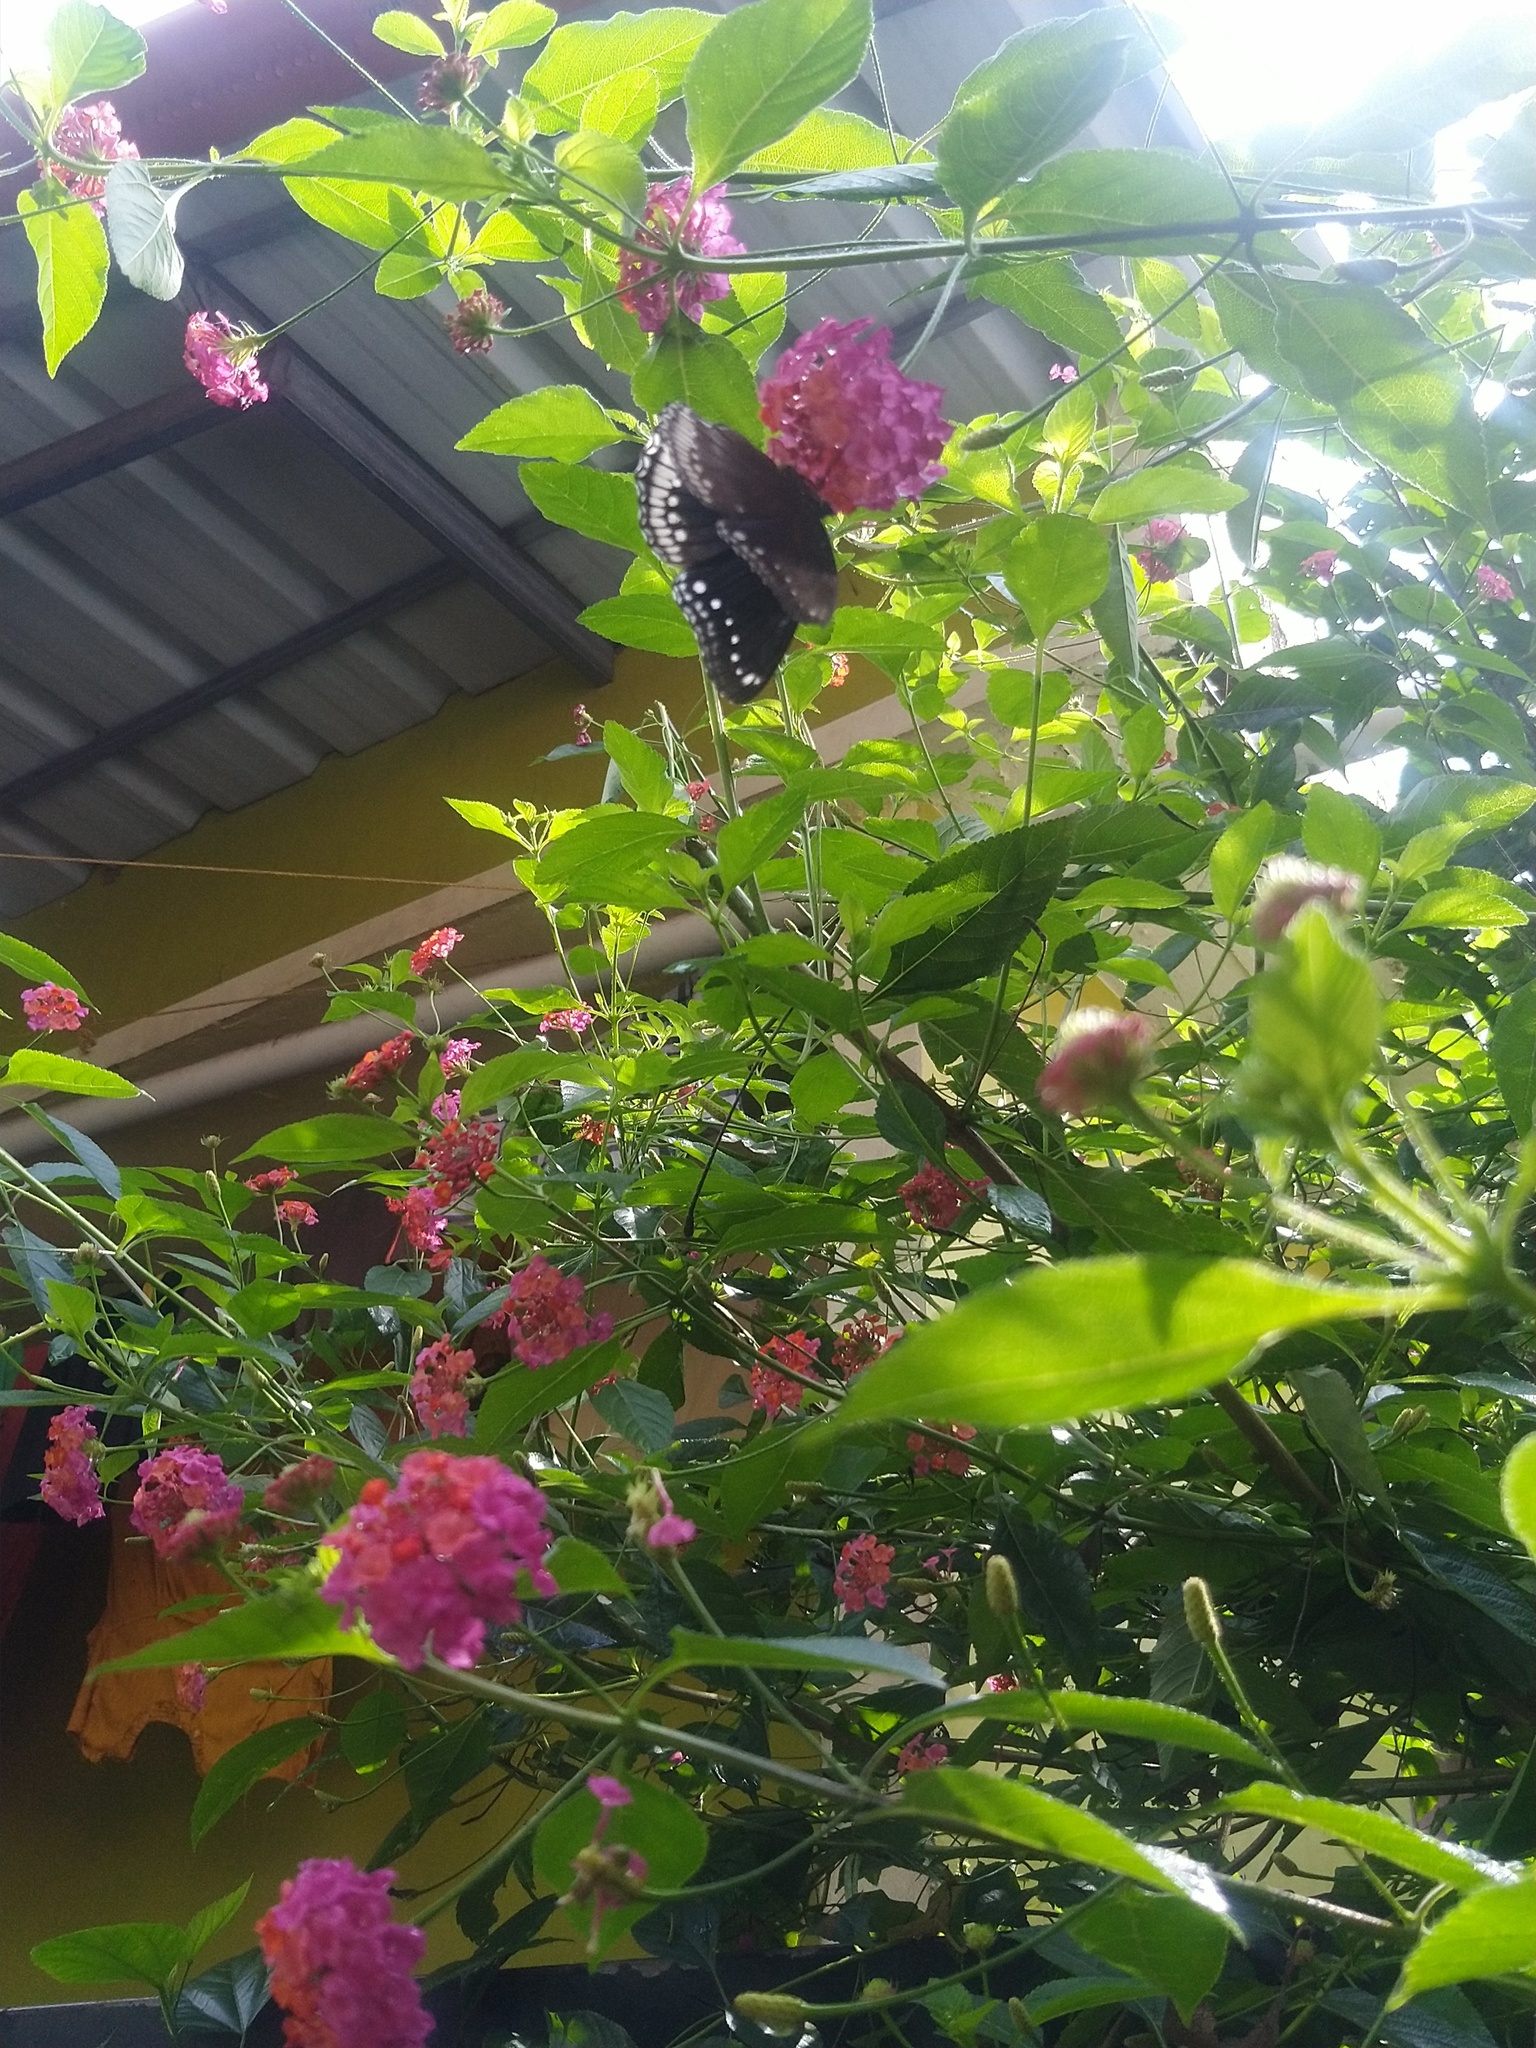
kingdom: Animalia
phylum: Arthropoda
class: Insecta
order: Lepidoptera
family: Nymphalidae
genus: Hypolimnas
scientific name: Hypolimnas bolina
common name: Great eggfly
